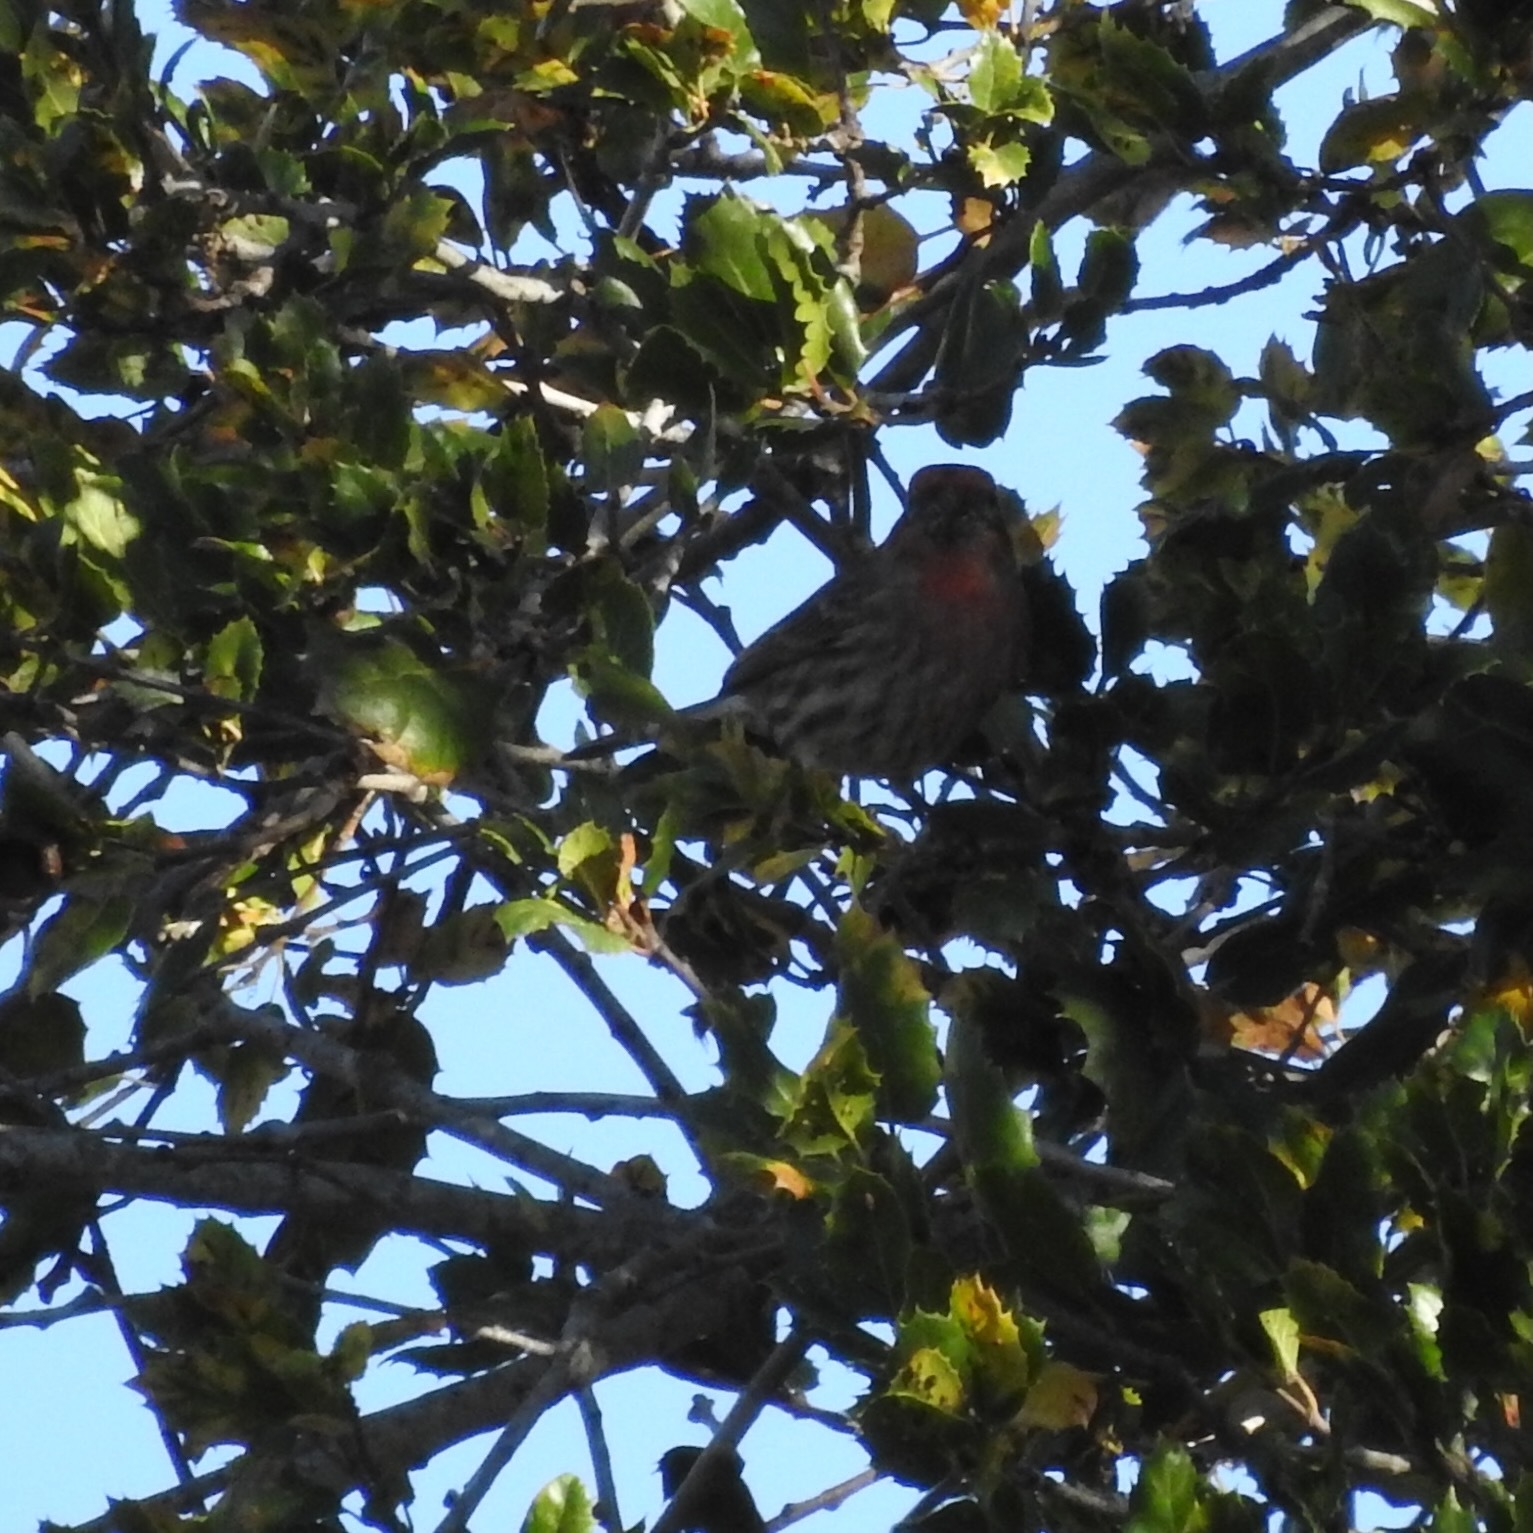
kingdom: Animalia
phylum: Chordata
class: Aves
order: Passeriformes
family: Fringillidae
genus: Haemorhous
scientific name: Haemorhous mexicanus
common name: House finch
